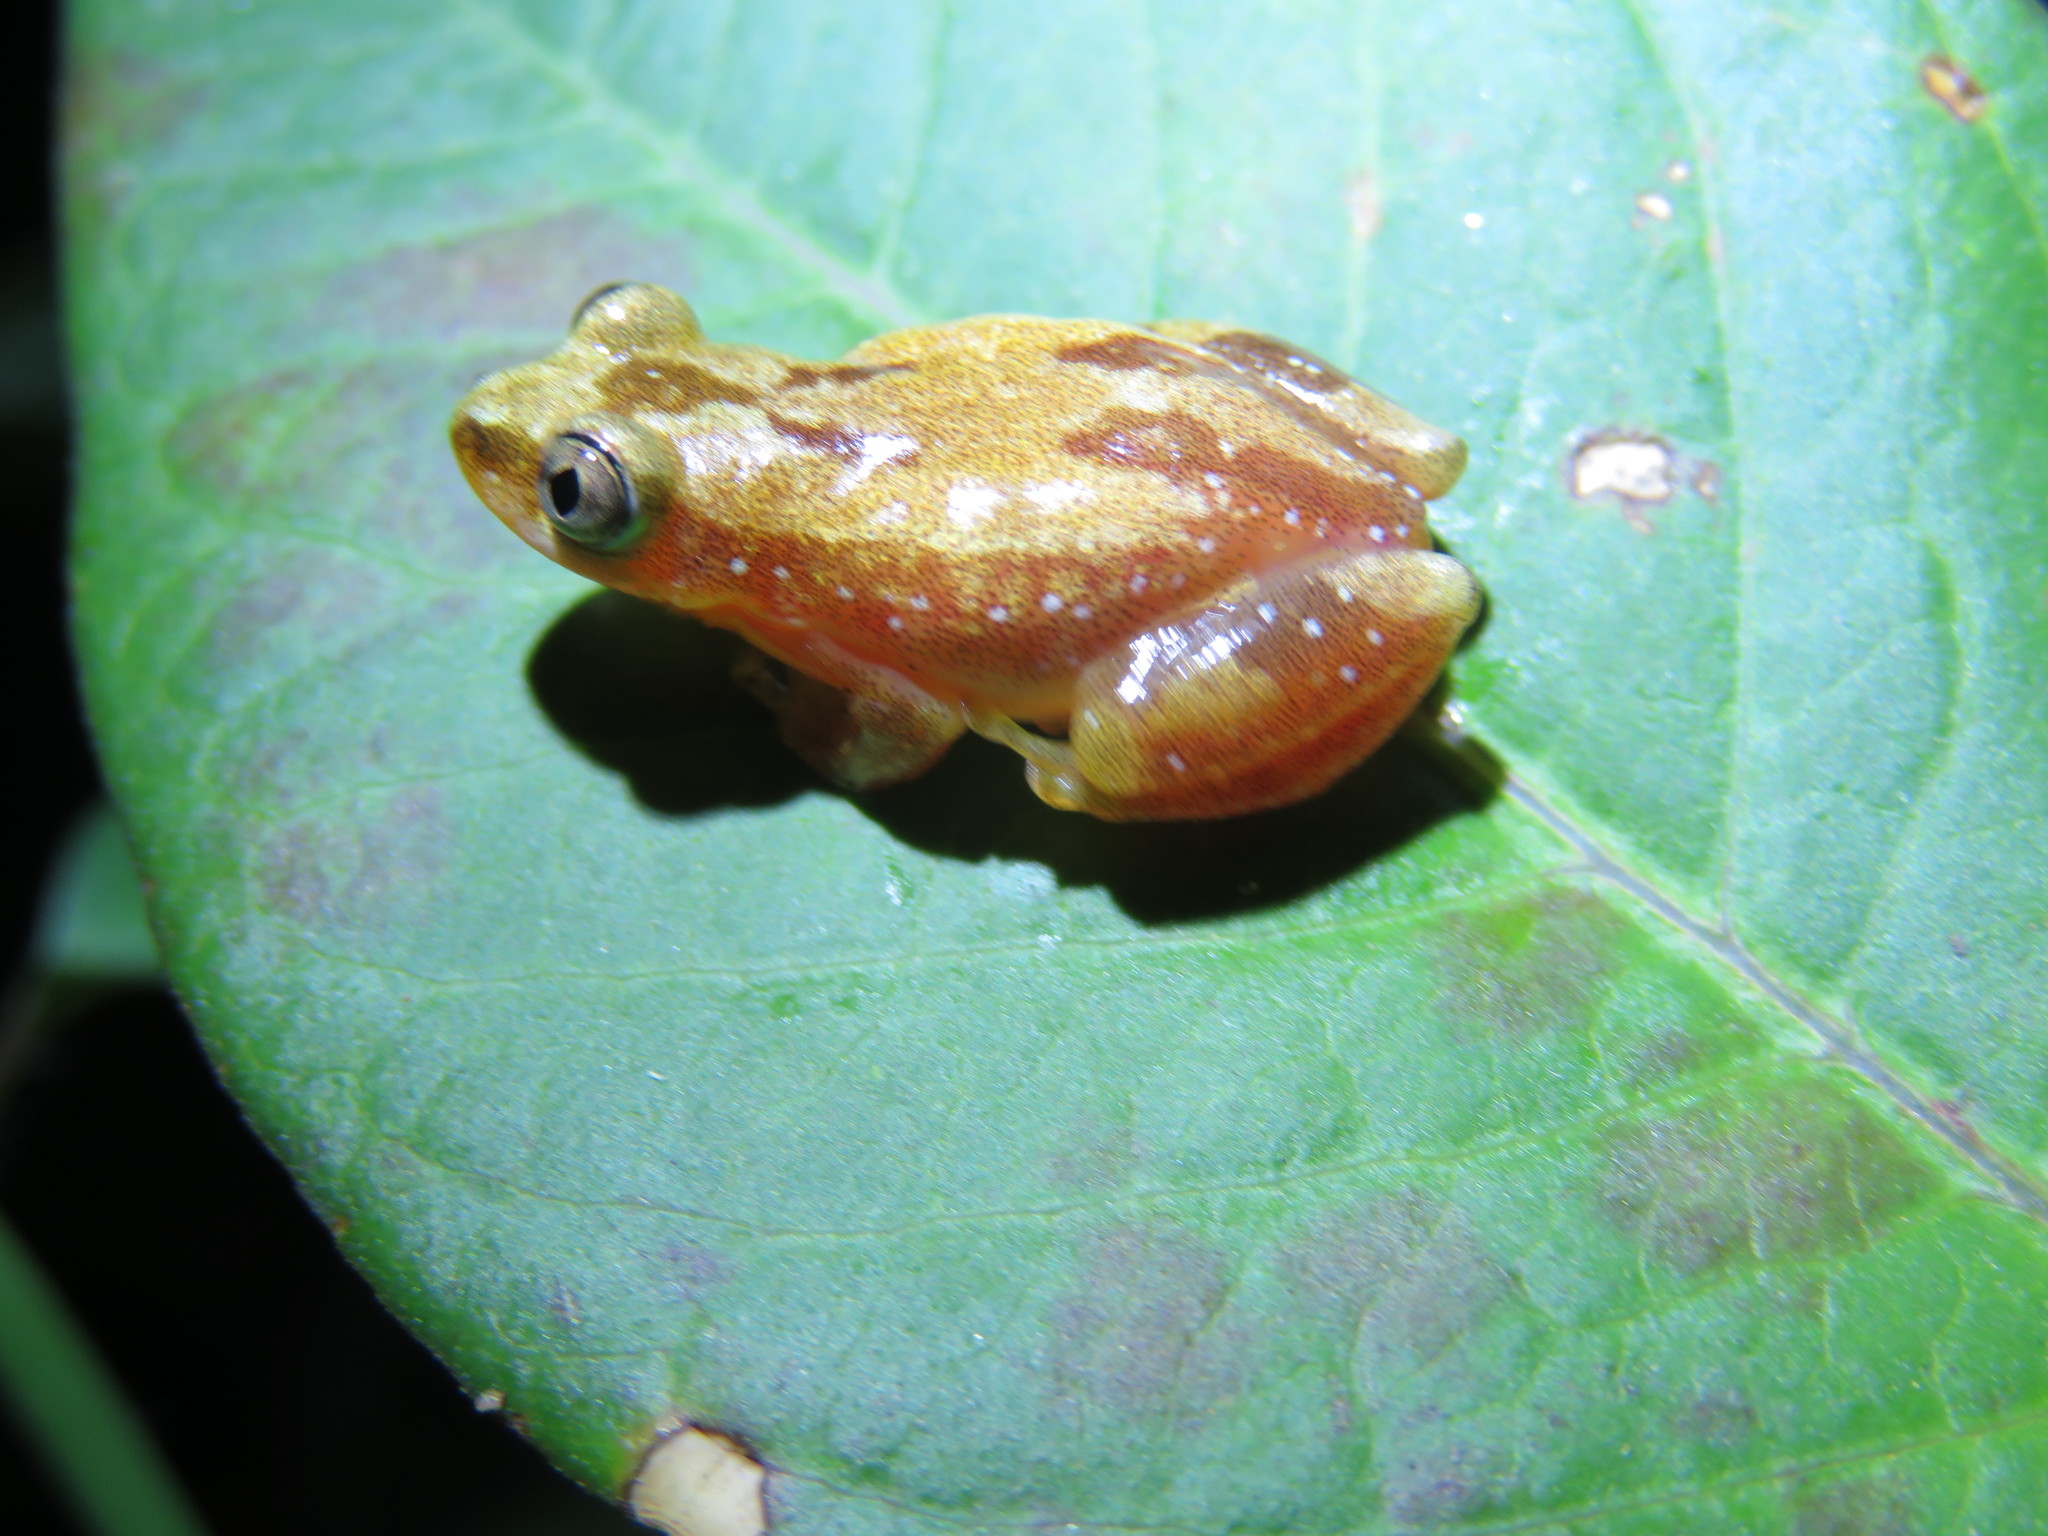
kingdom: Animalia
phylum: Chordata
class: Amphibia
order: Anura
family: Hyperoliidae
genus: Afrixalus
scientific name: Afrixalus delicatus
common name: Delicate leaf-folding frog
